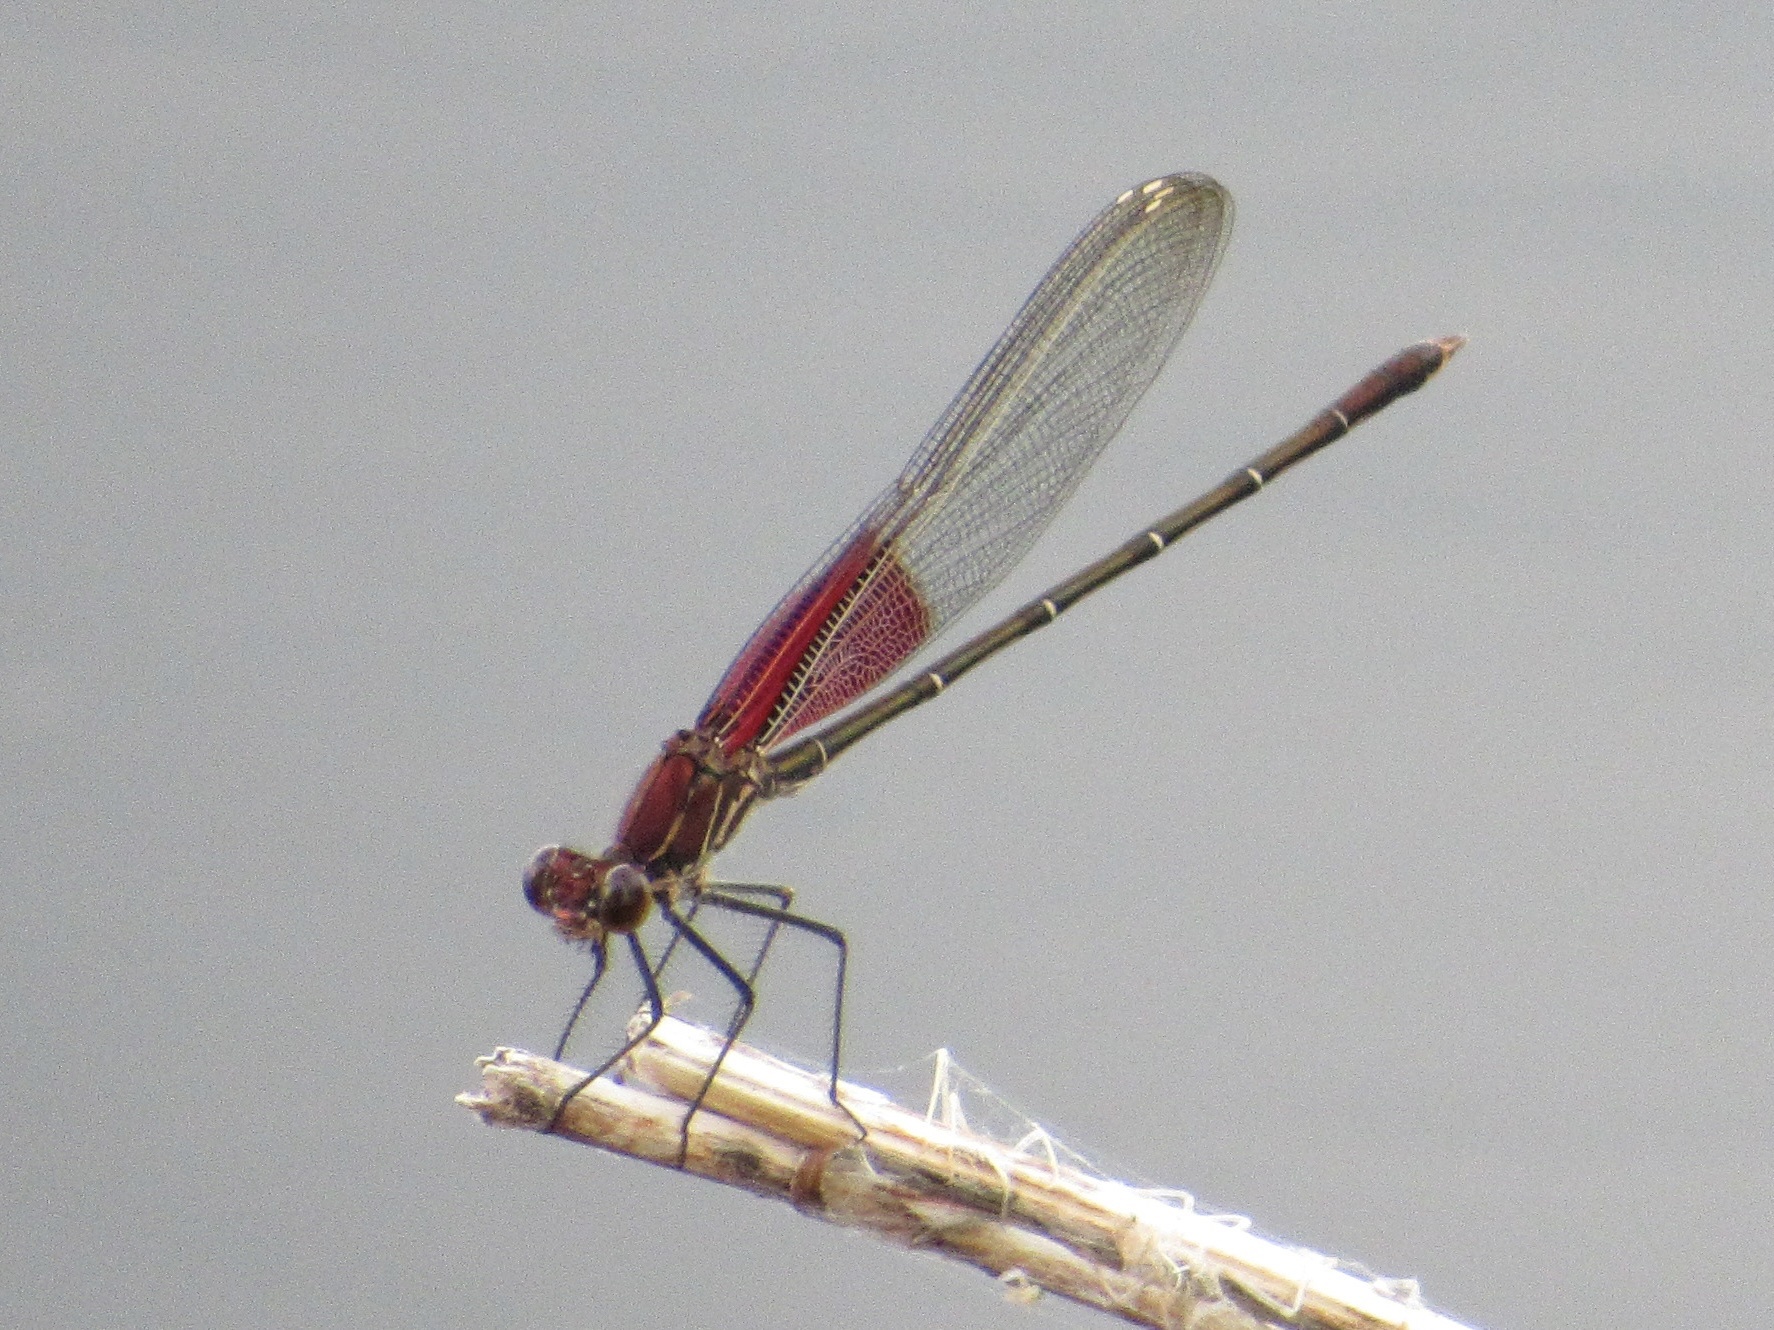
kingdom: Animalia
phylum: Arthropoda
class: Insecta
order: Odonata
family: Calopterygidae
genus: Hetaerina
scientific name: Hetaerina americana
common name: American rubyspot
